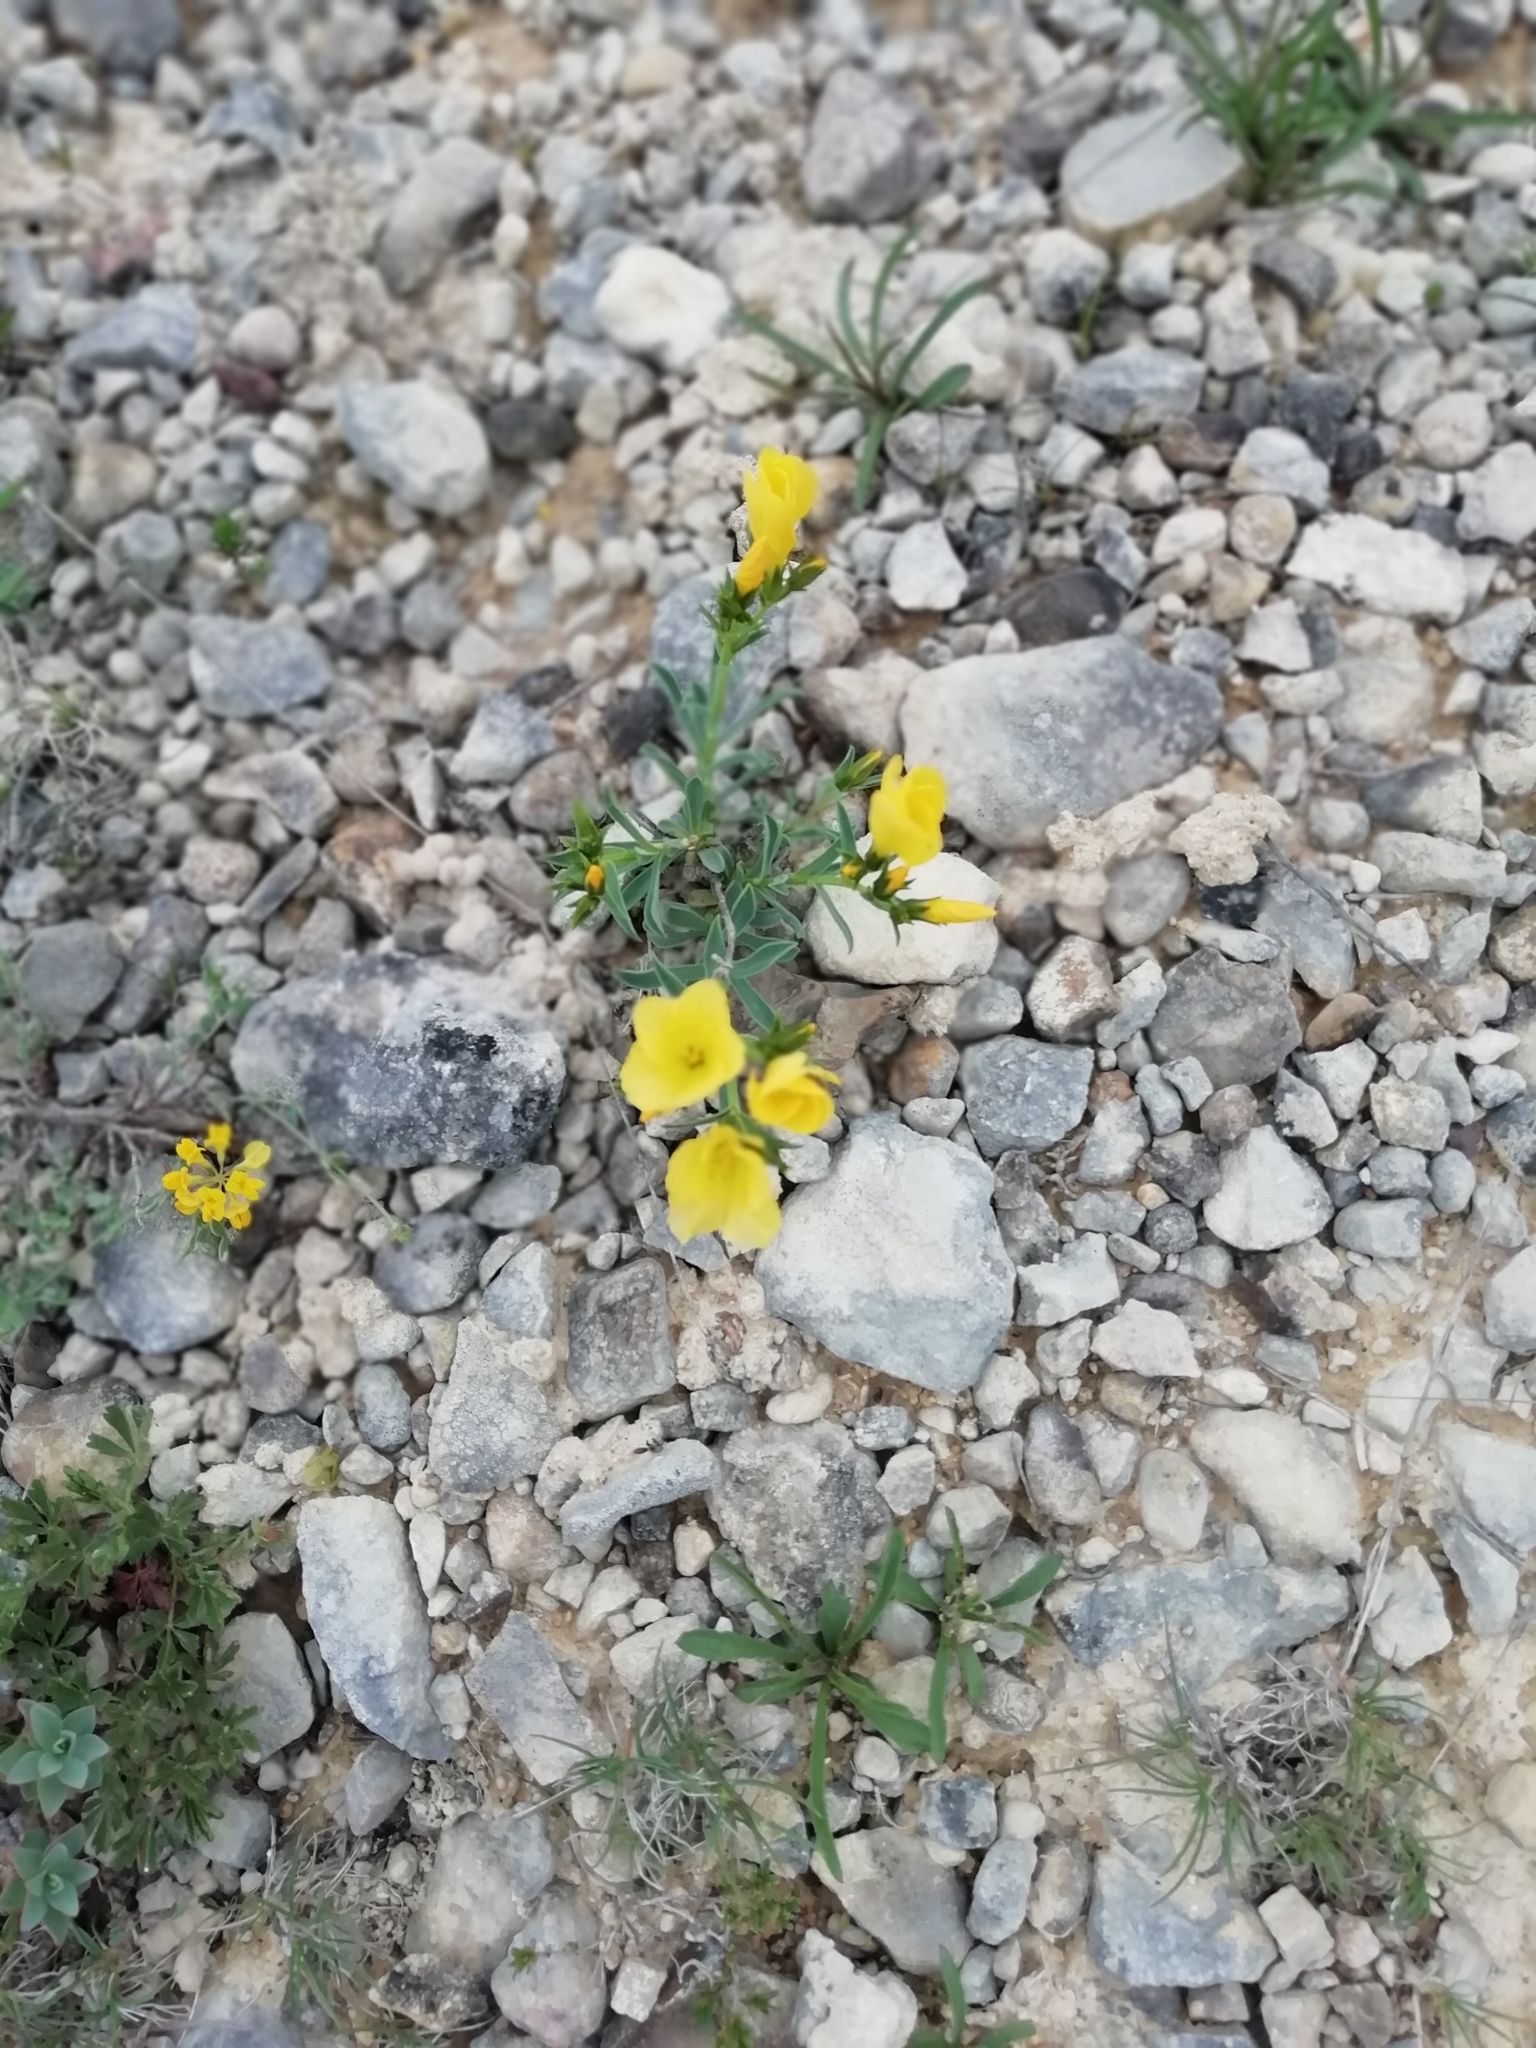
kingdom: Plantae
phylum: Tracheophyta
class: Magnoliopsida
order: Malpighiales
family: Linaceae
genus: Linum
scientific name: Linum campanulatum
